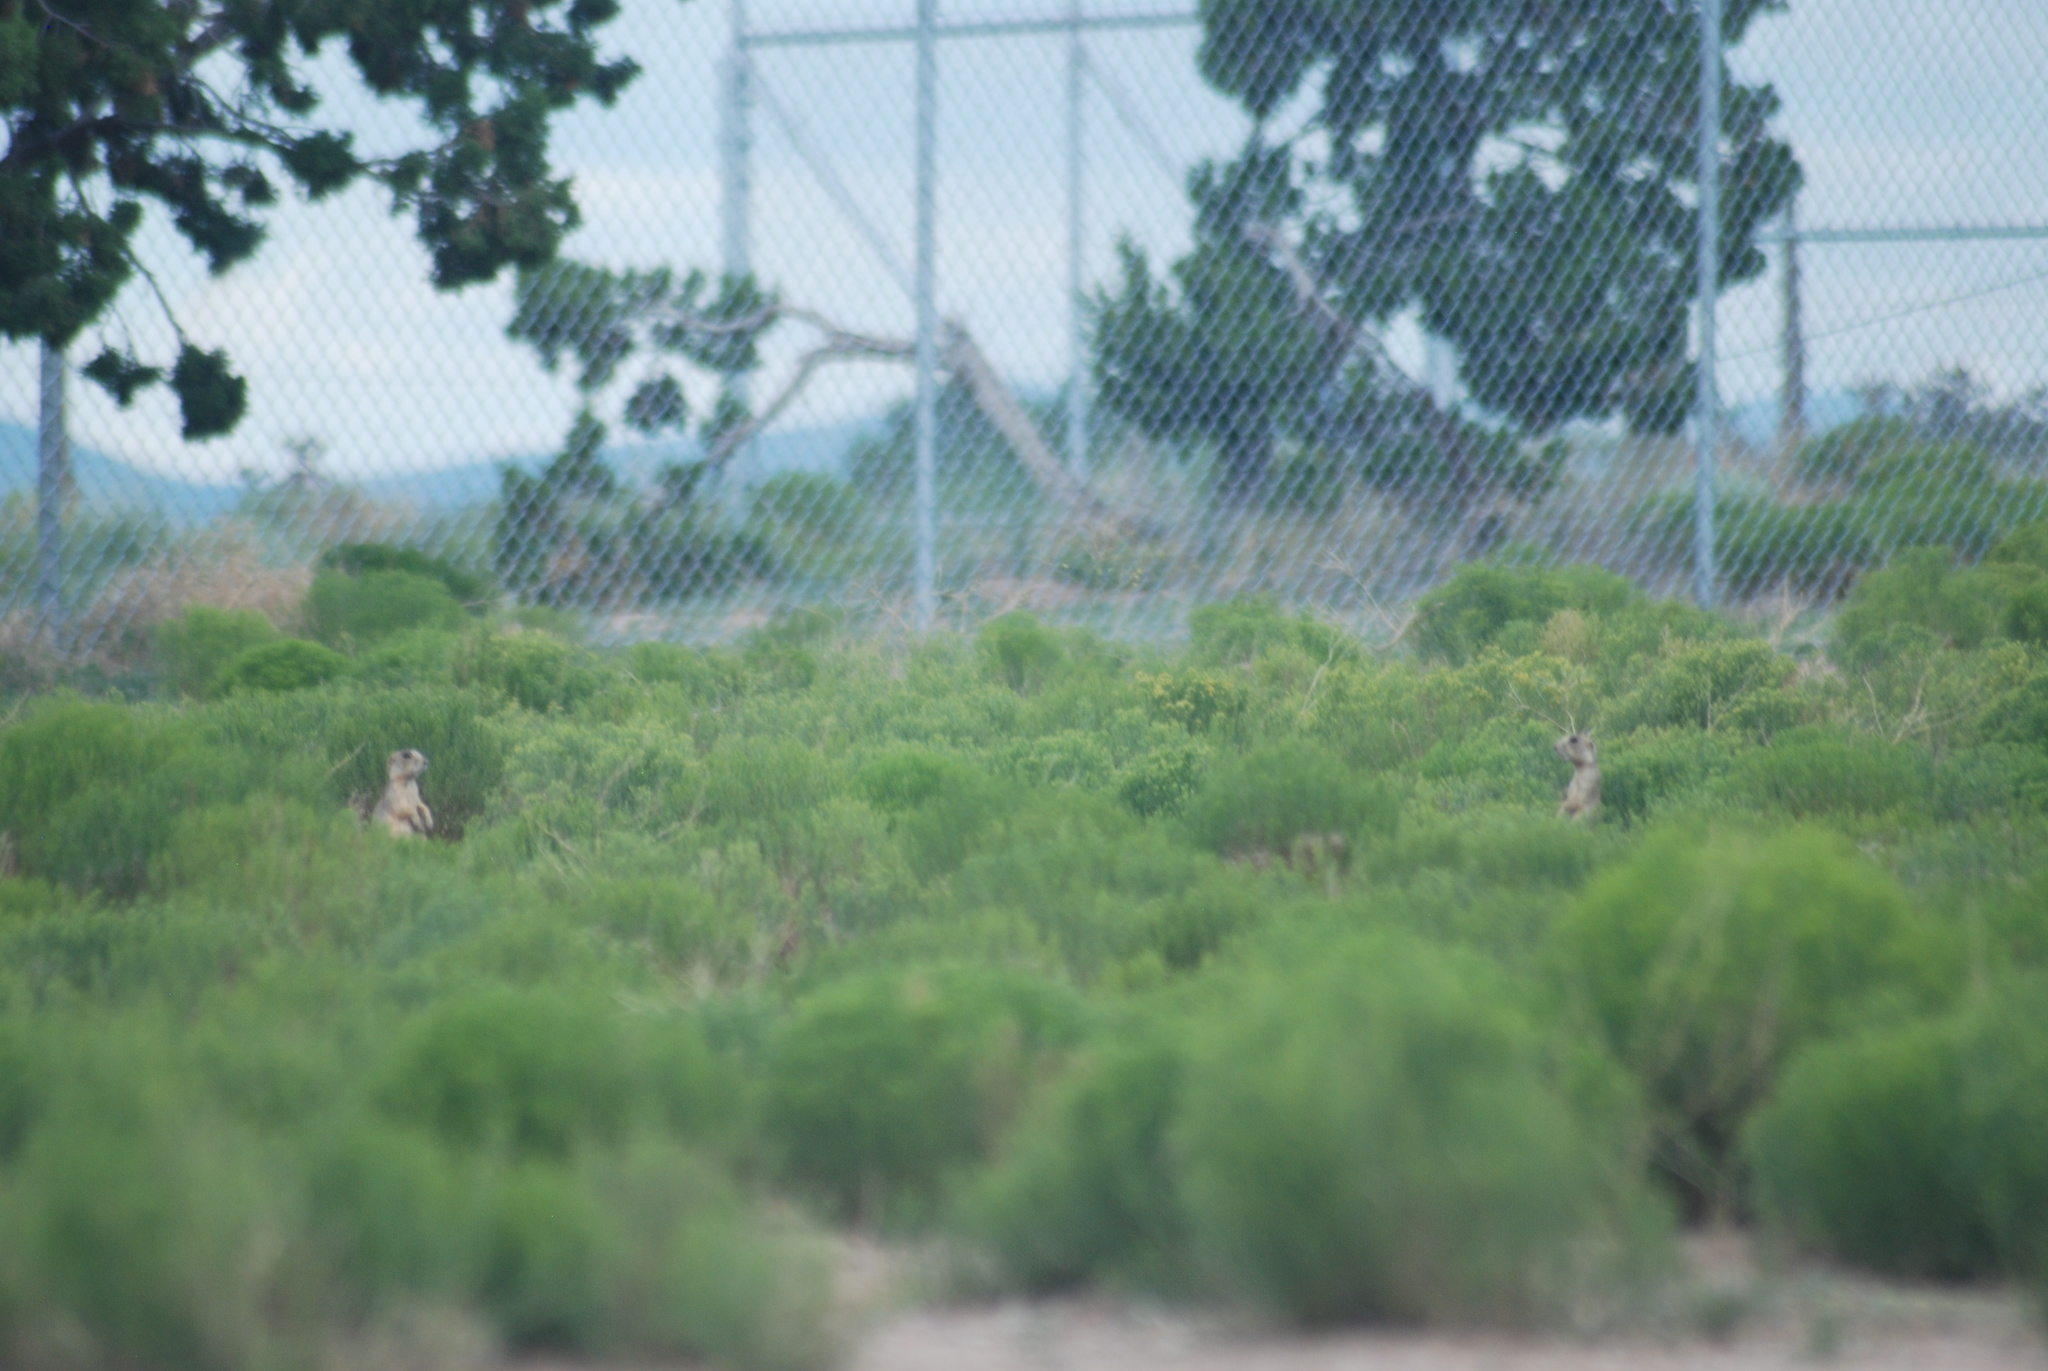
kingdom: Animalia
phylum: Chordata
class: Mammalia
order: Rodentia
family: Sciuridae
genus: Cynomys
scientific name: Cynomys gunnisoni
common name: Gunnison's prairie dog
